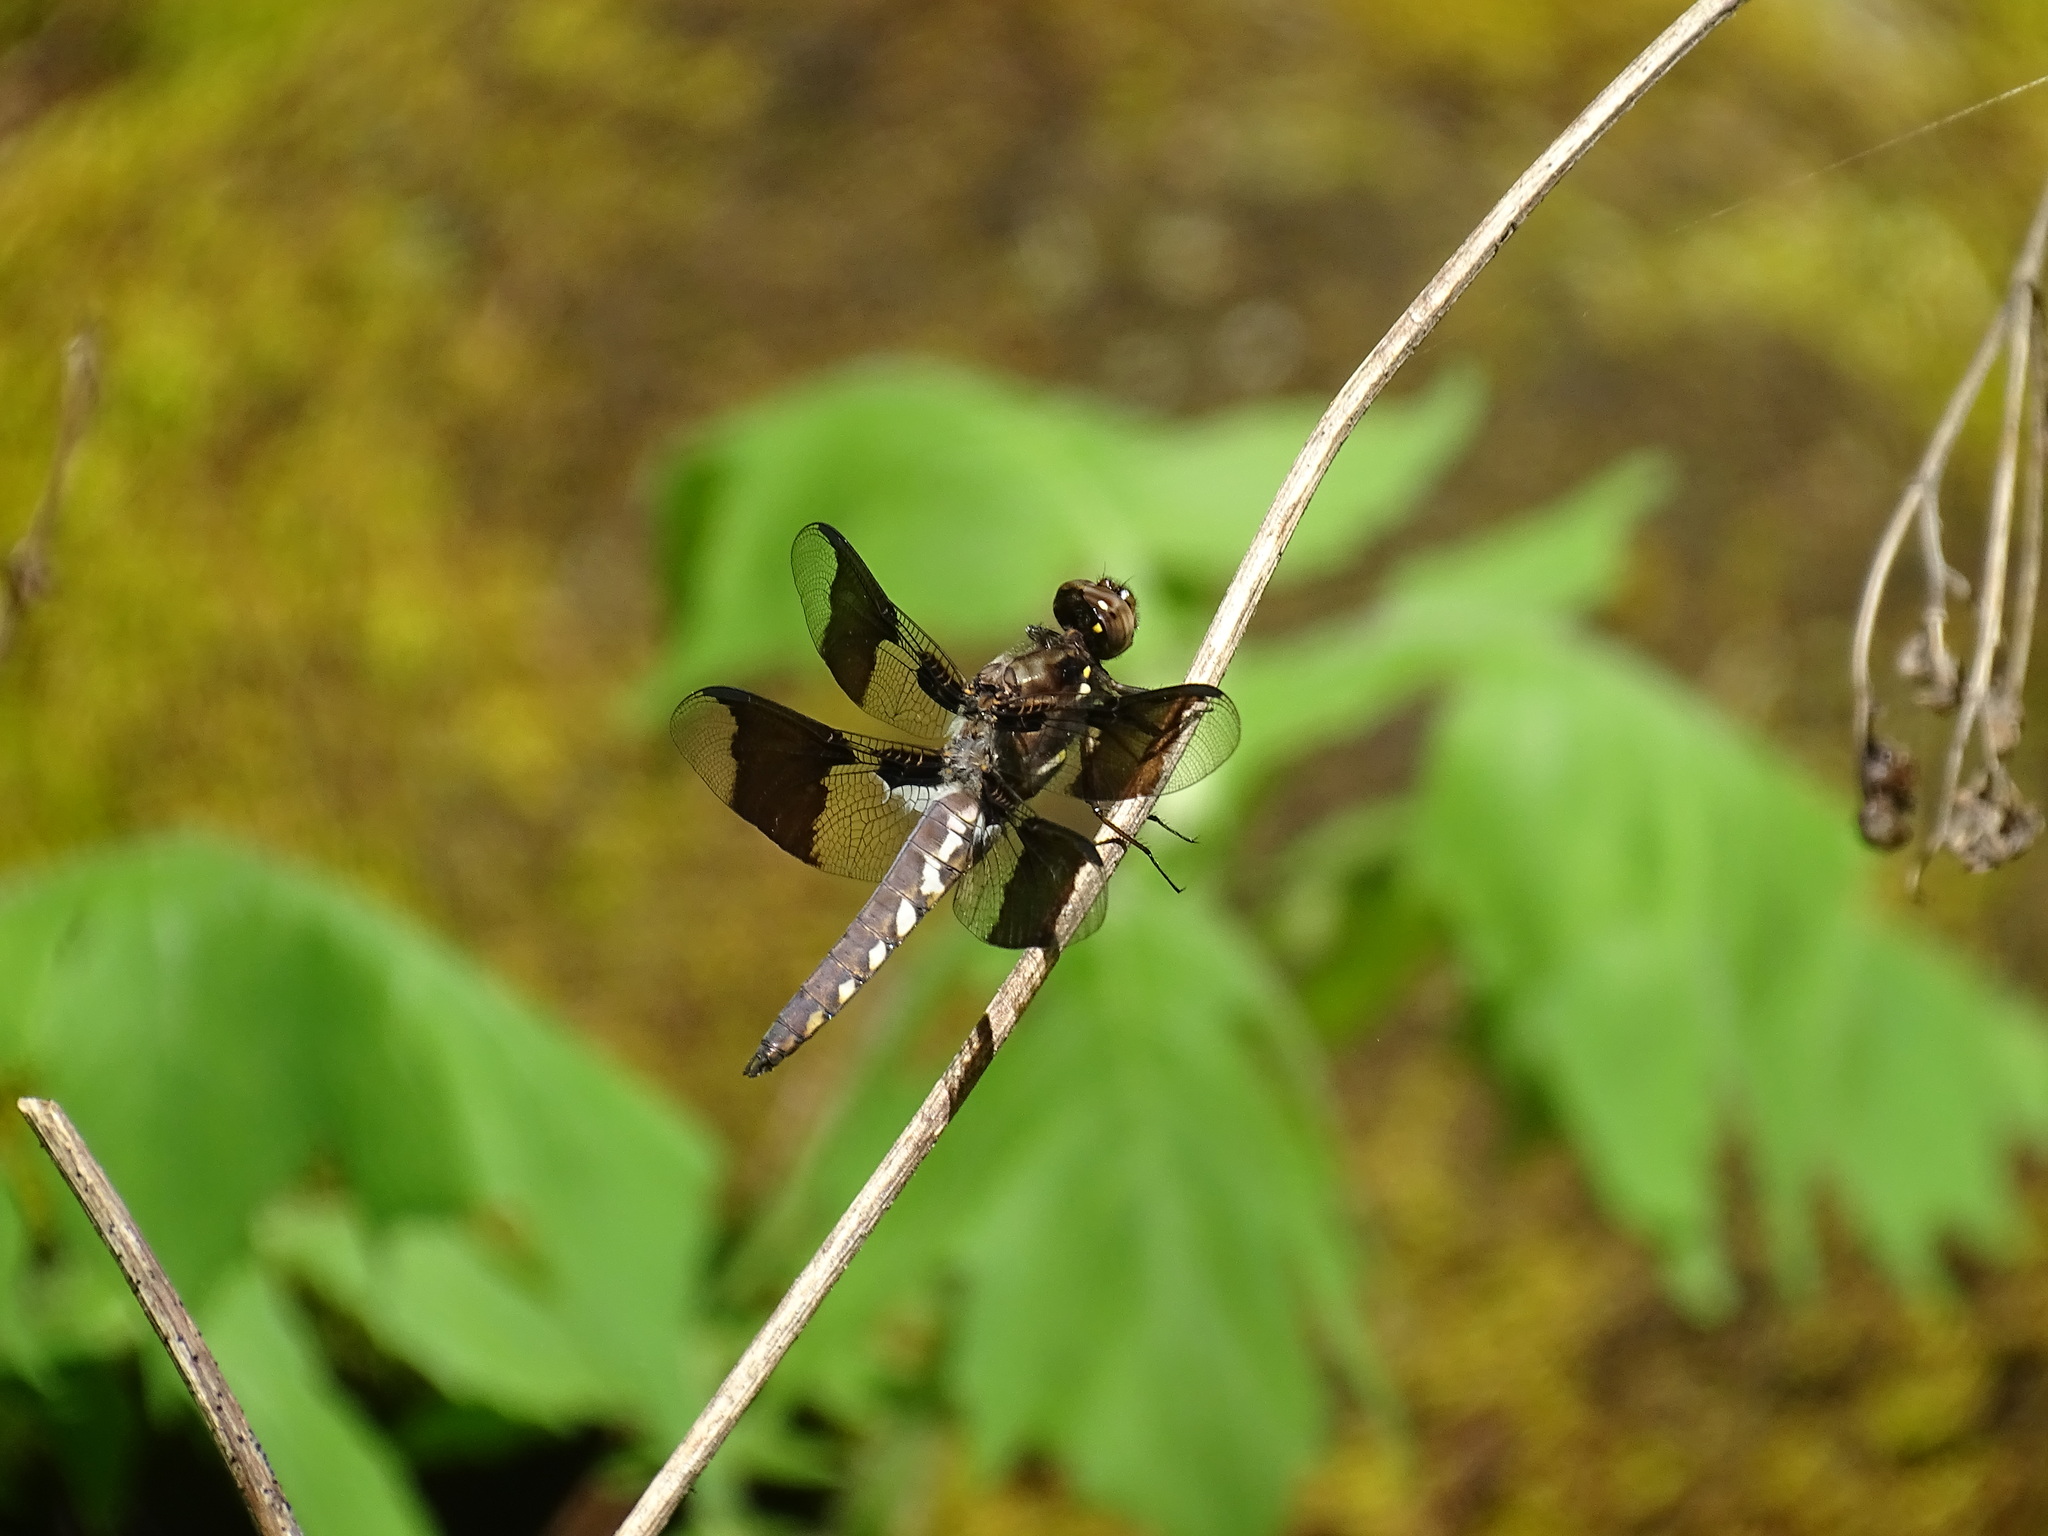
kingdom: Animalia
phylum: Arthropoda
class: Insecta
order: Odonata
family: Libellulidae
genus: Plathemis
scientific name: Plathemis lydia
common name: Common whitetail
